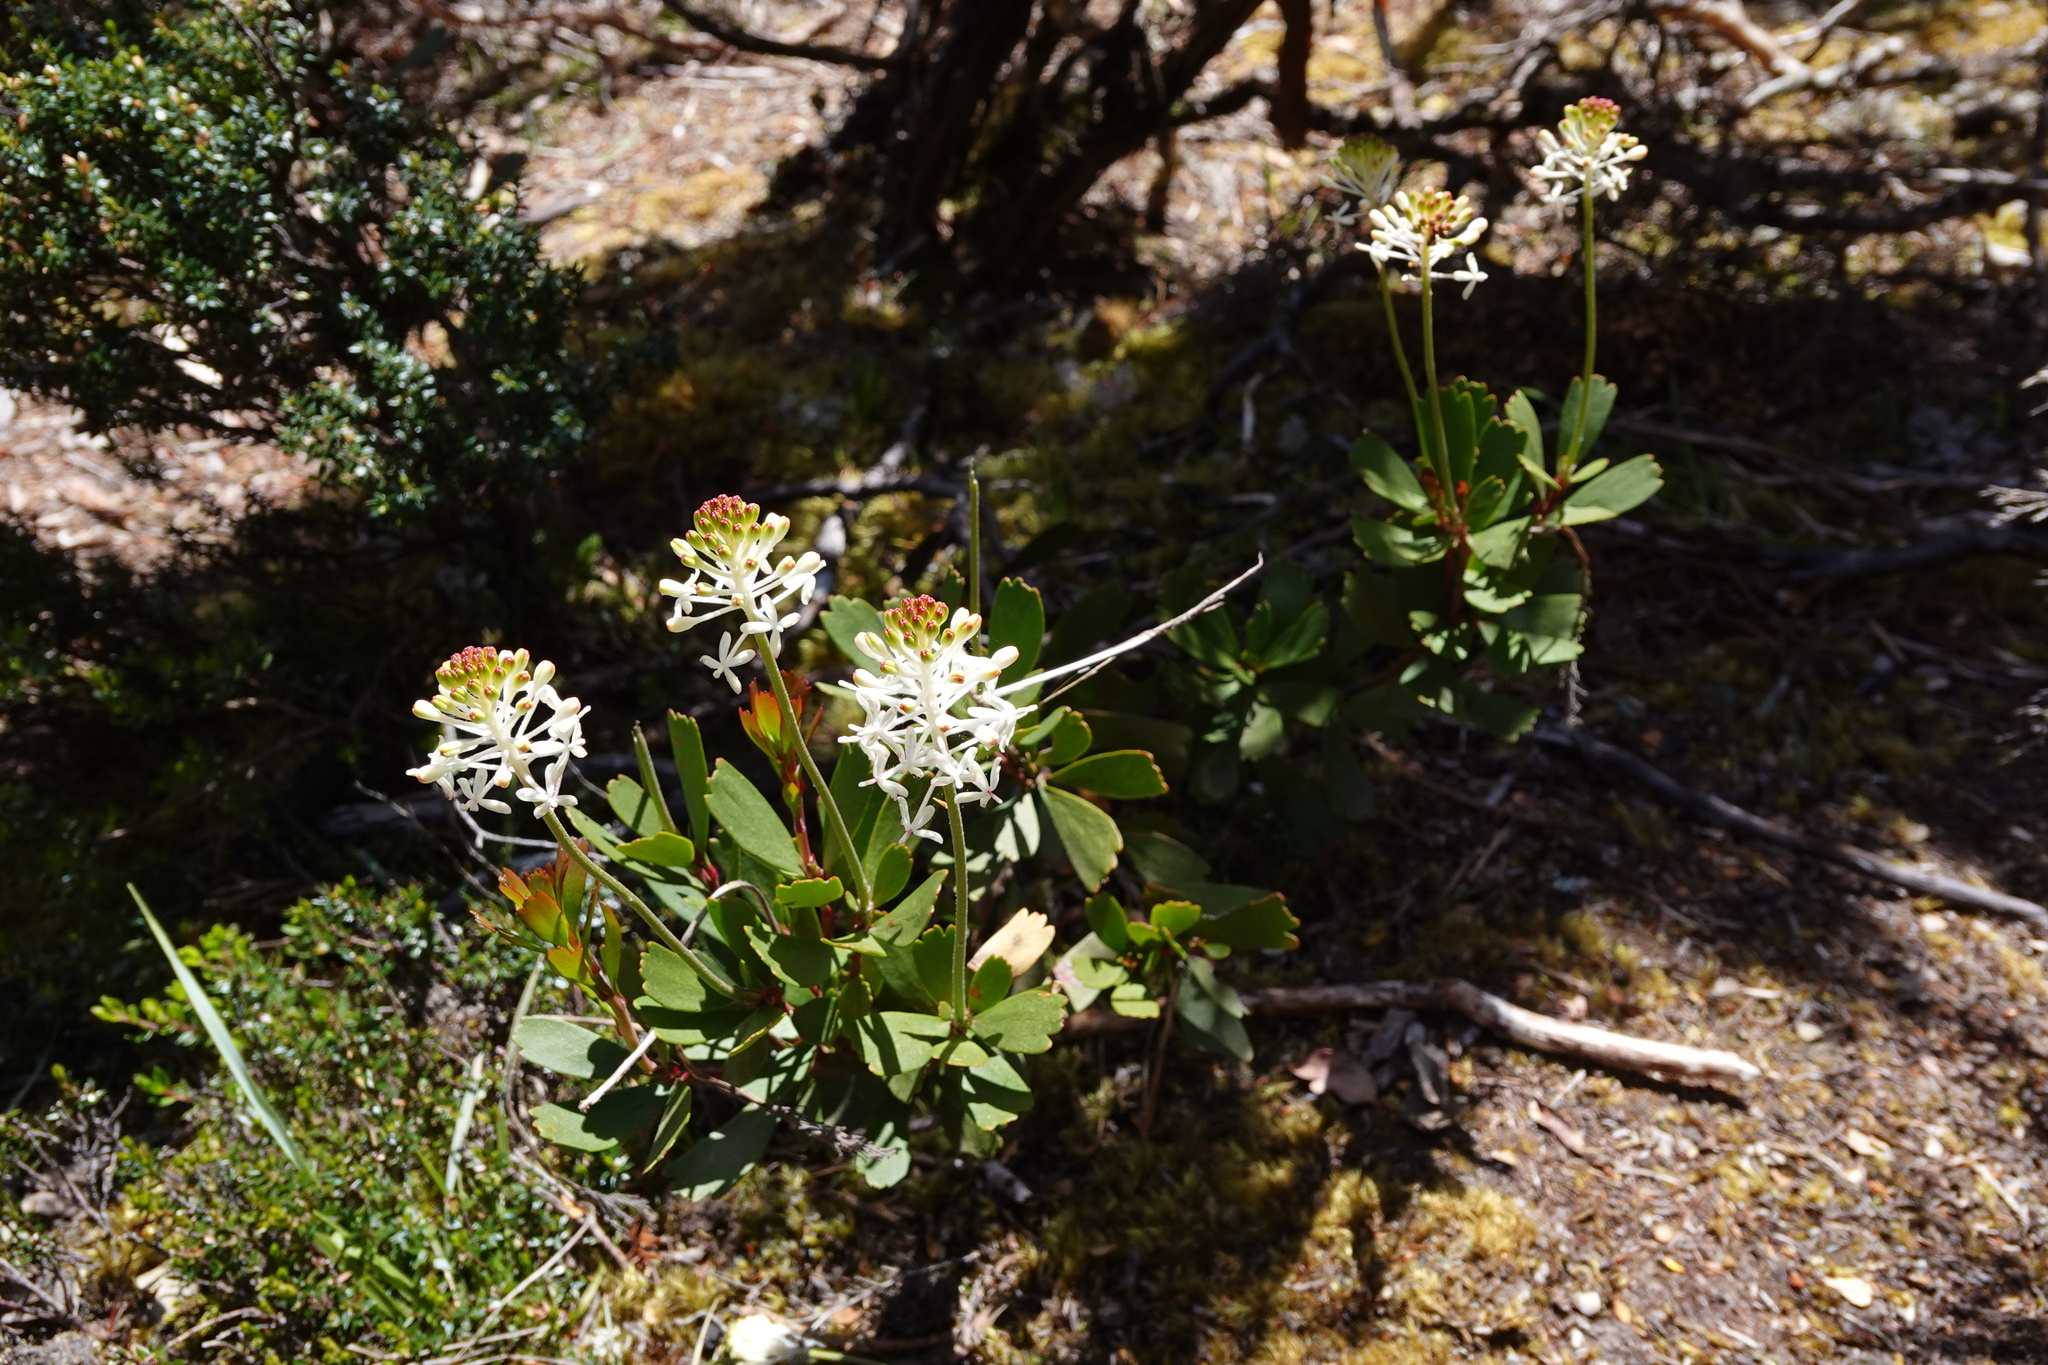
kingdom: Plantae
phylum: Tracheophyta
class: Magnoliopsida
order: Proteales
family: Proteaceae
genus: Bellendena
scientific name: Bellendena montana
